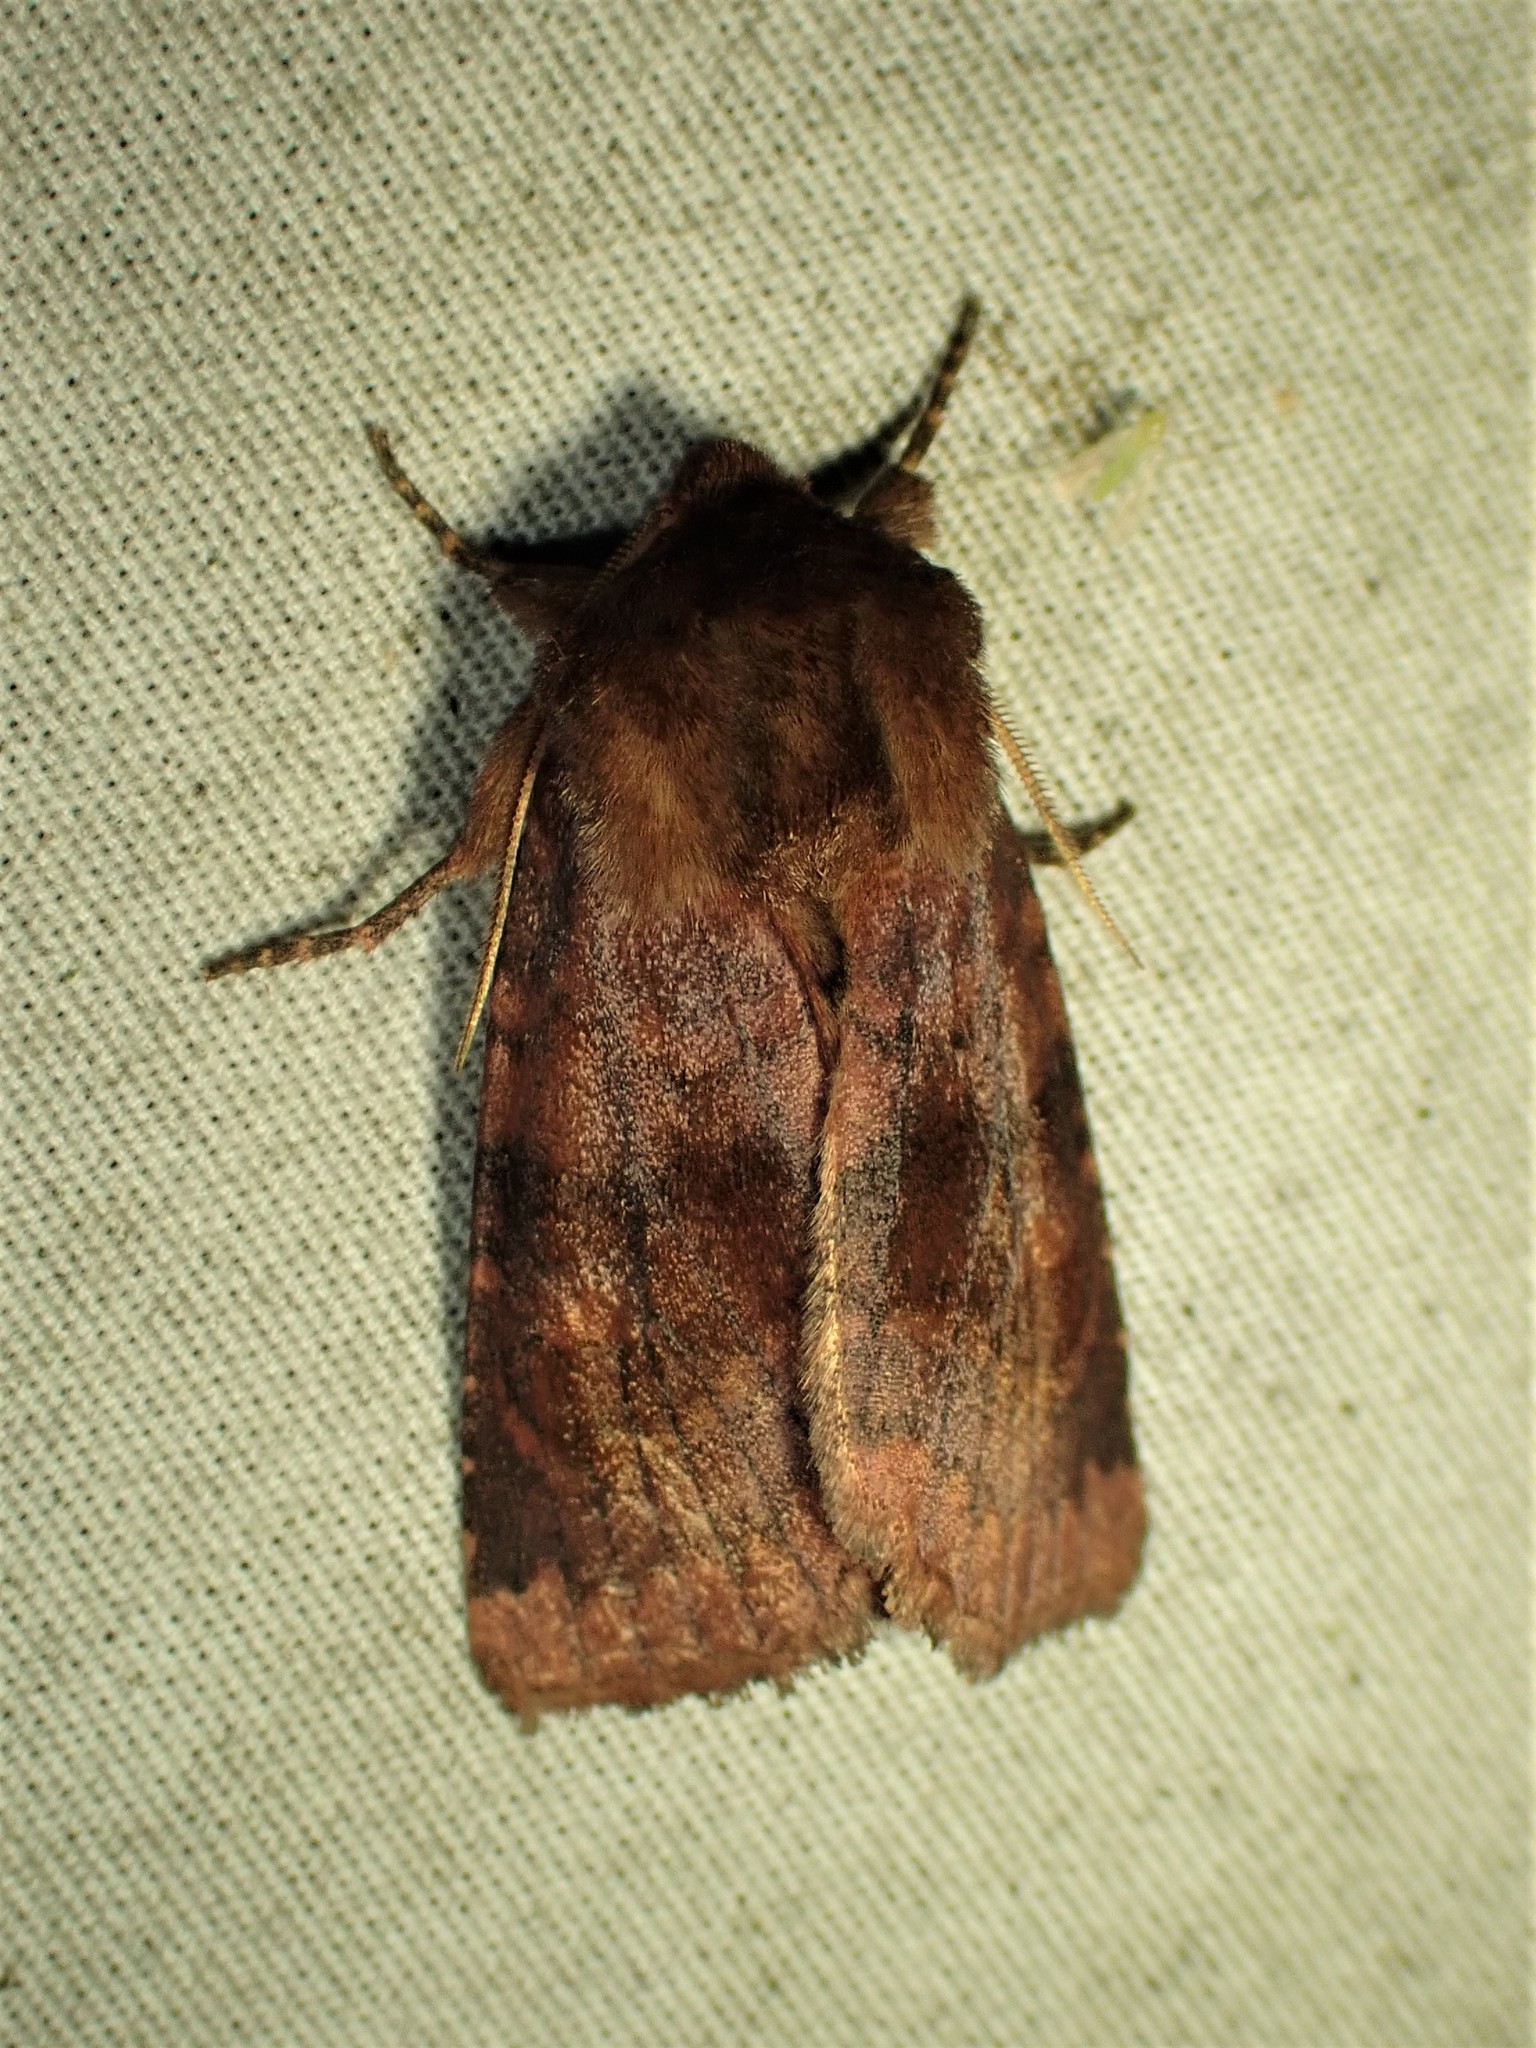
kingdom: Animalia
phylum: Arthropoda
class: Insecta
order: Lepidoptera
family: Noctuidae
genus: Nephelodes
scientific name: Nephelodes minians
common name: Bronzed cutworm
